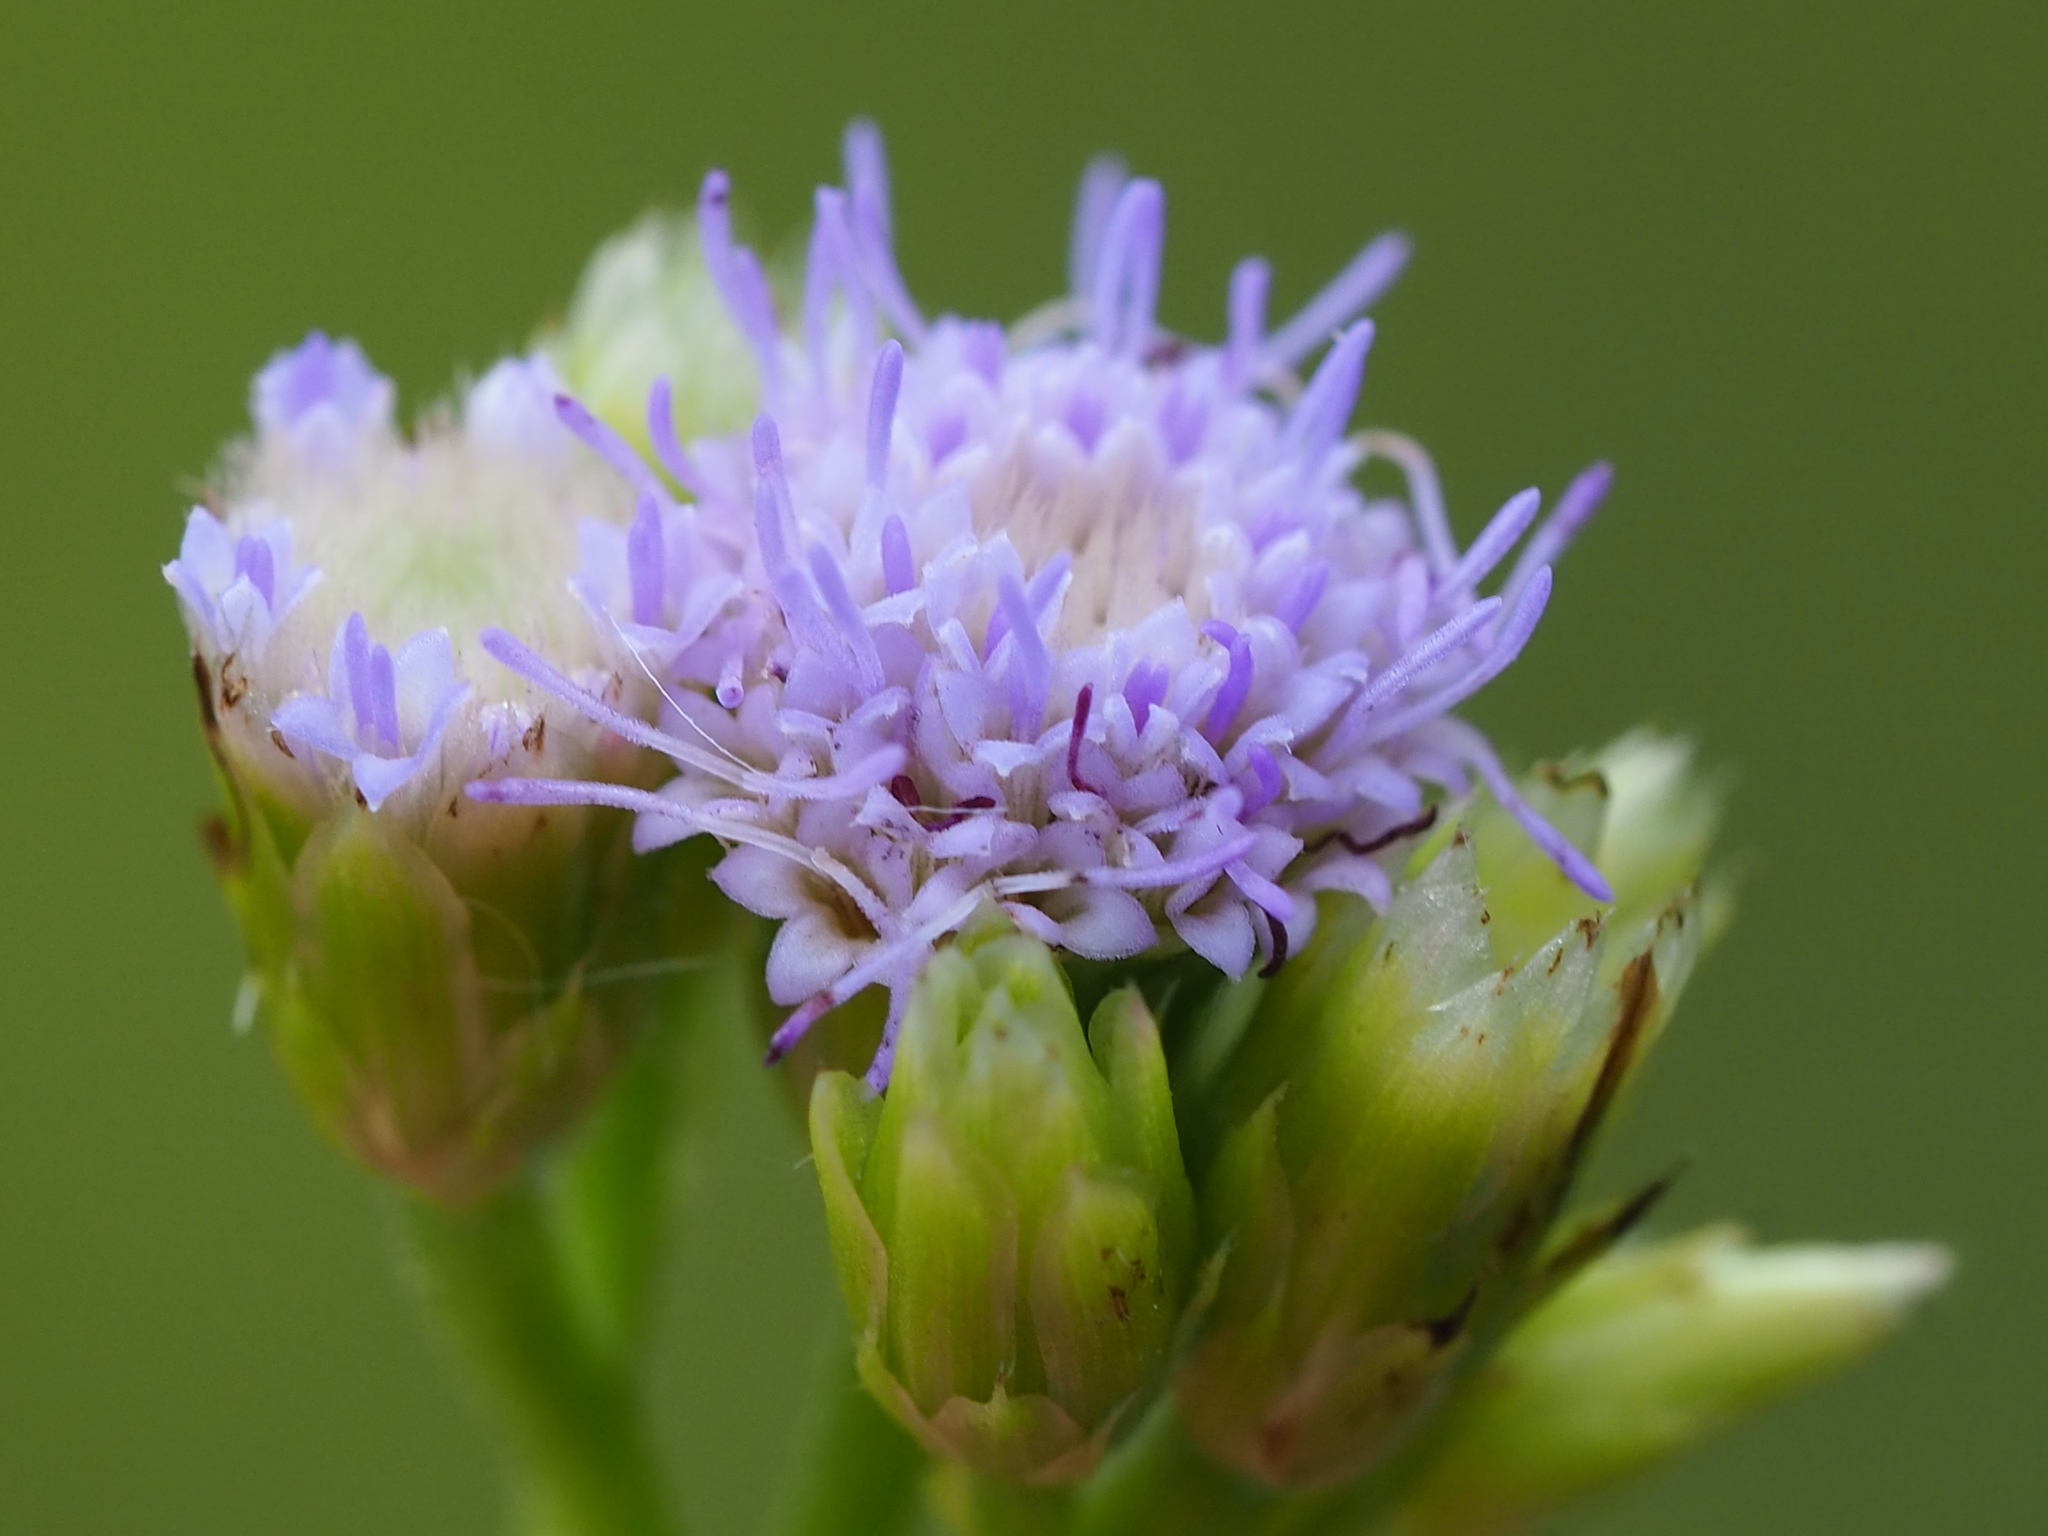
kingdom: Plantae
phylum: Tracheophyta
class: Magnoliopsida
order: Asterales
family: Asteraceae
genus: Praxelis
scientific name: Praxelis clematidea
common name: Praxelis
